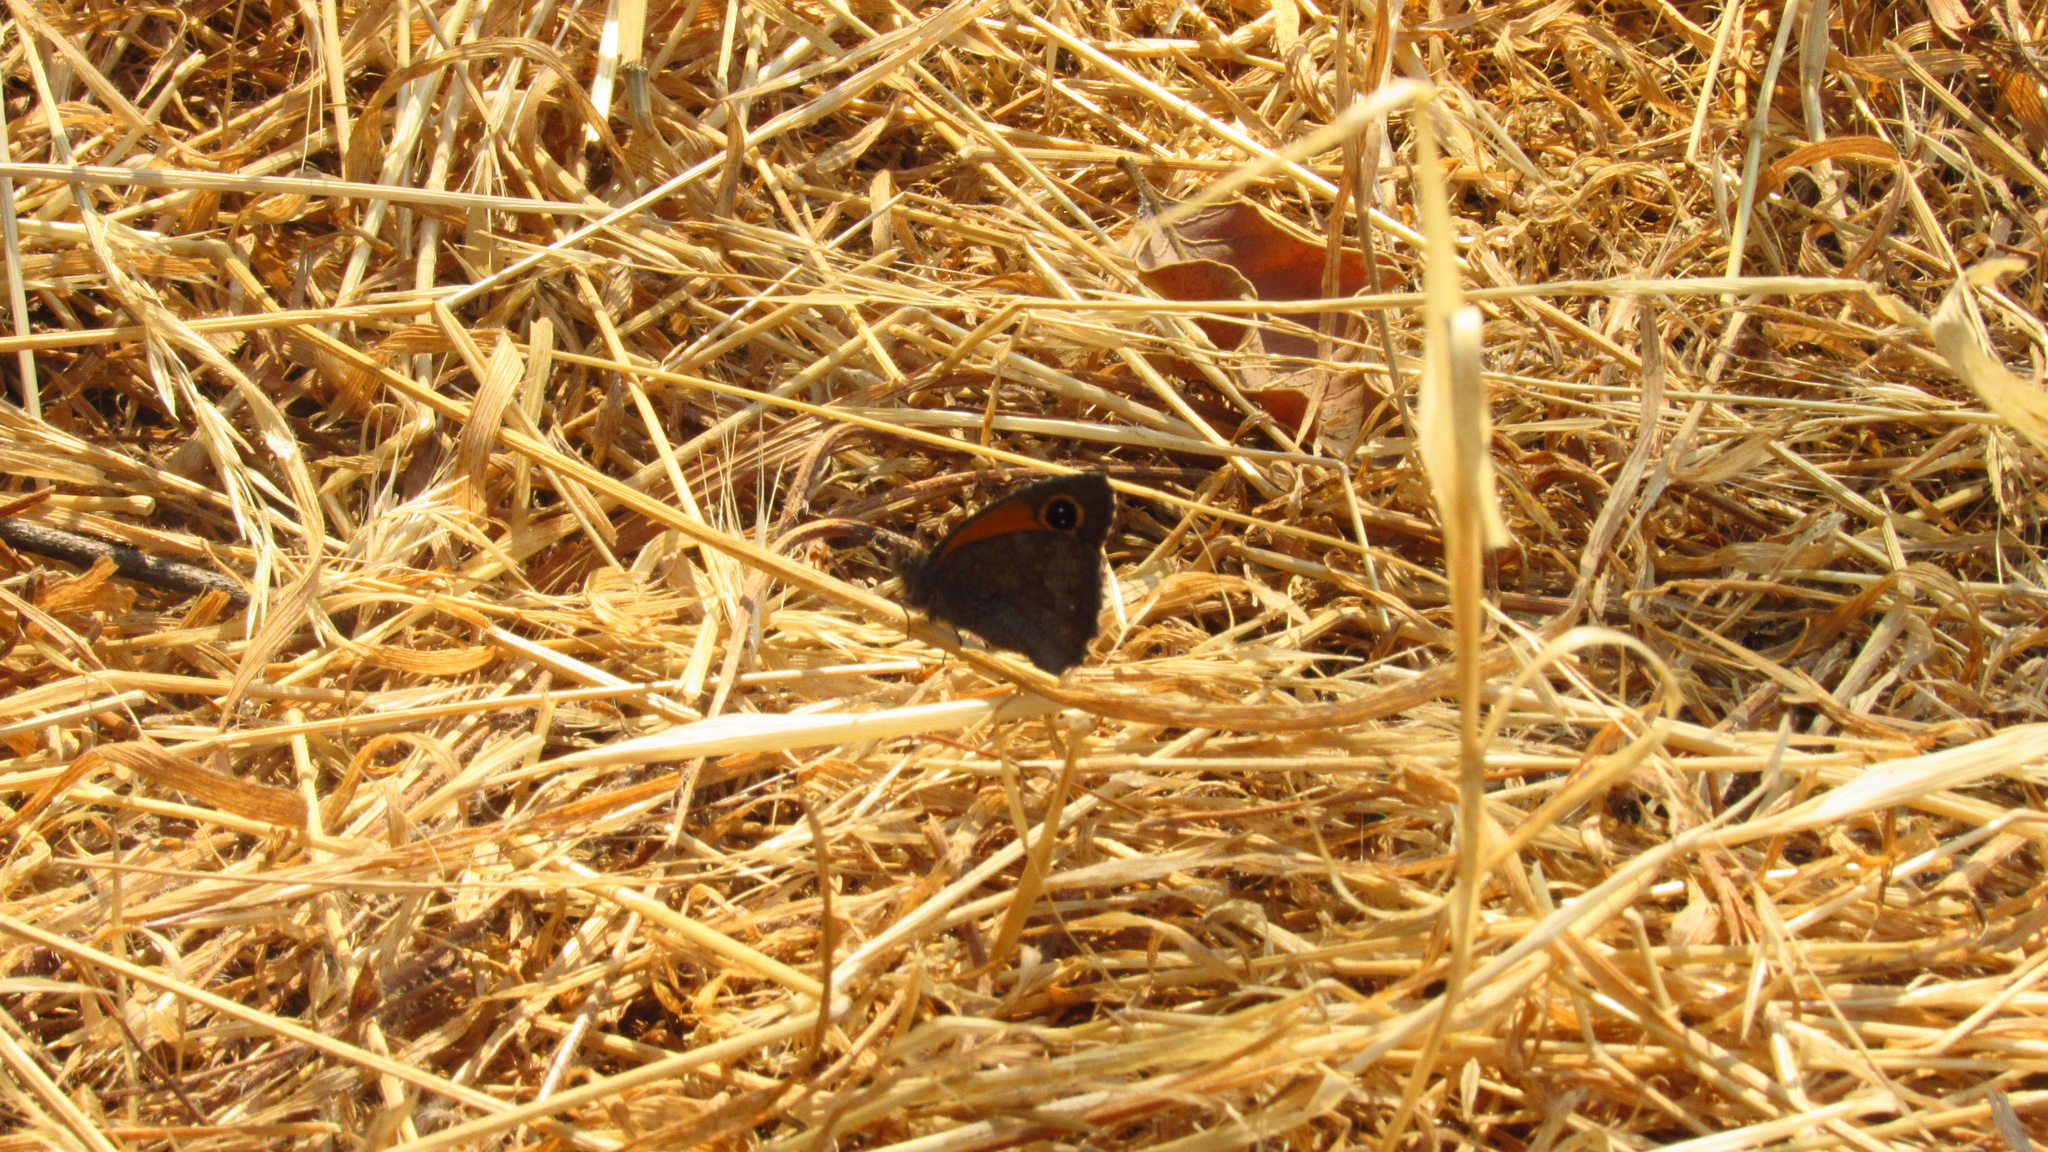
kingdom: Animalia
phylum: Arthropoda
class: Insecta
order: Lepidoptera
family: Nymphalidae
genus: Auca
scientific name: Auca
